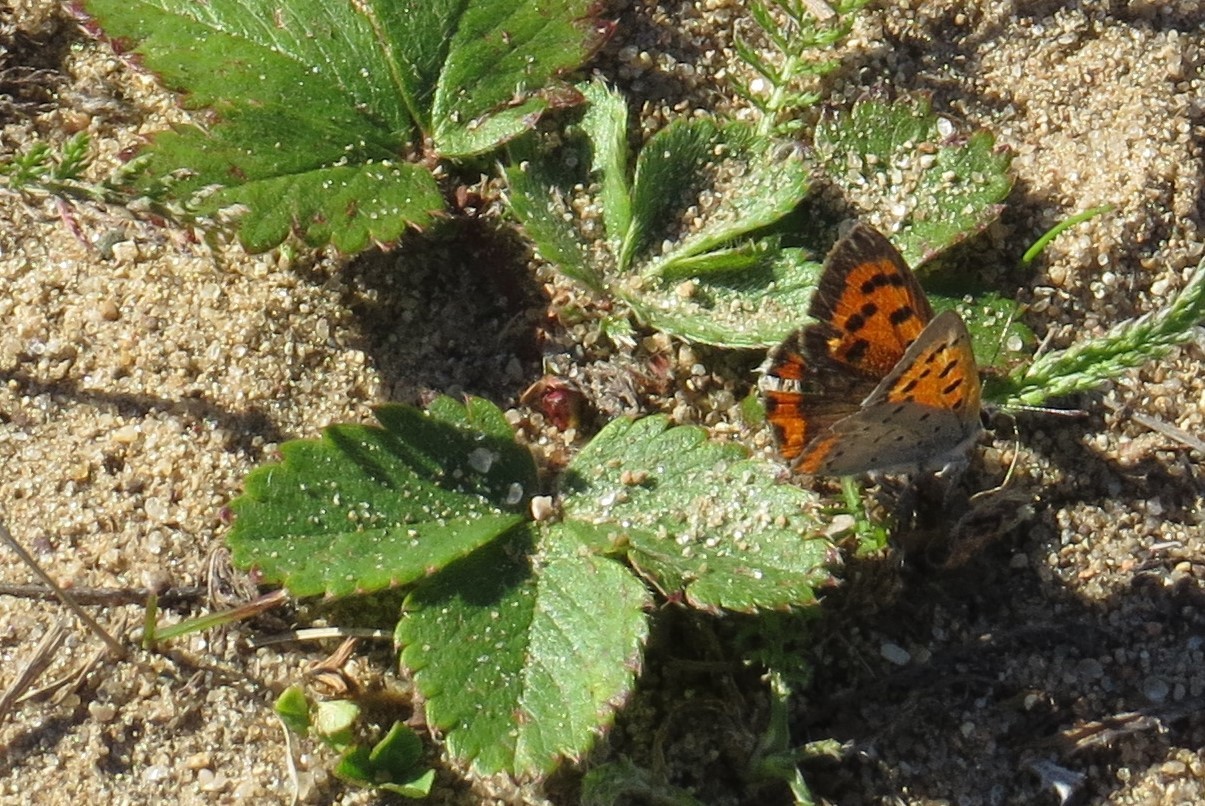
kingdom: Animalia
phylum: Arthropoda
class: Insecta
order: Lepidoptera
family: Lycaenidae
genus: Lycaena
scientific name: Lycaena hypophlaeas
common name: American copper
